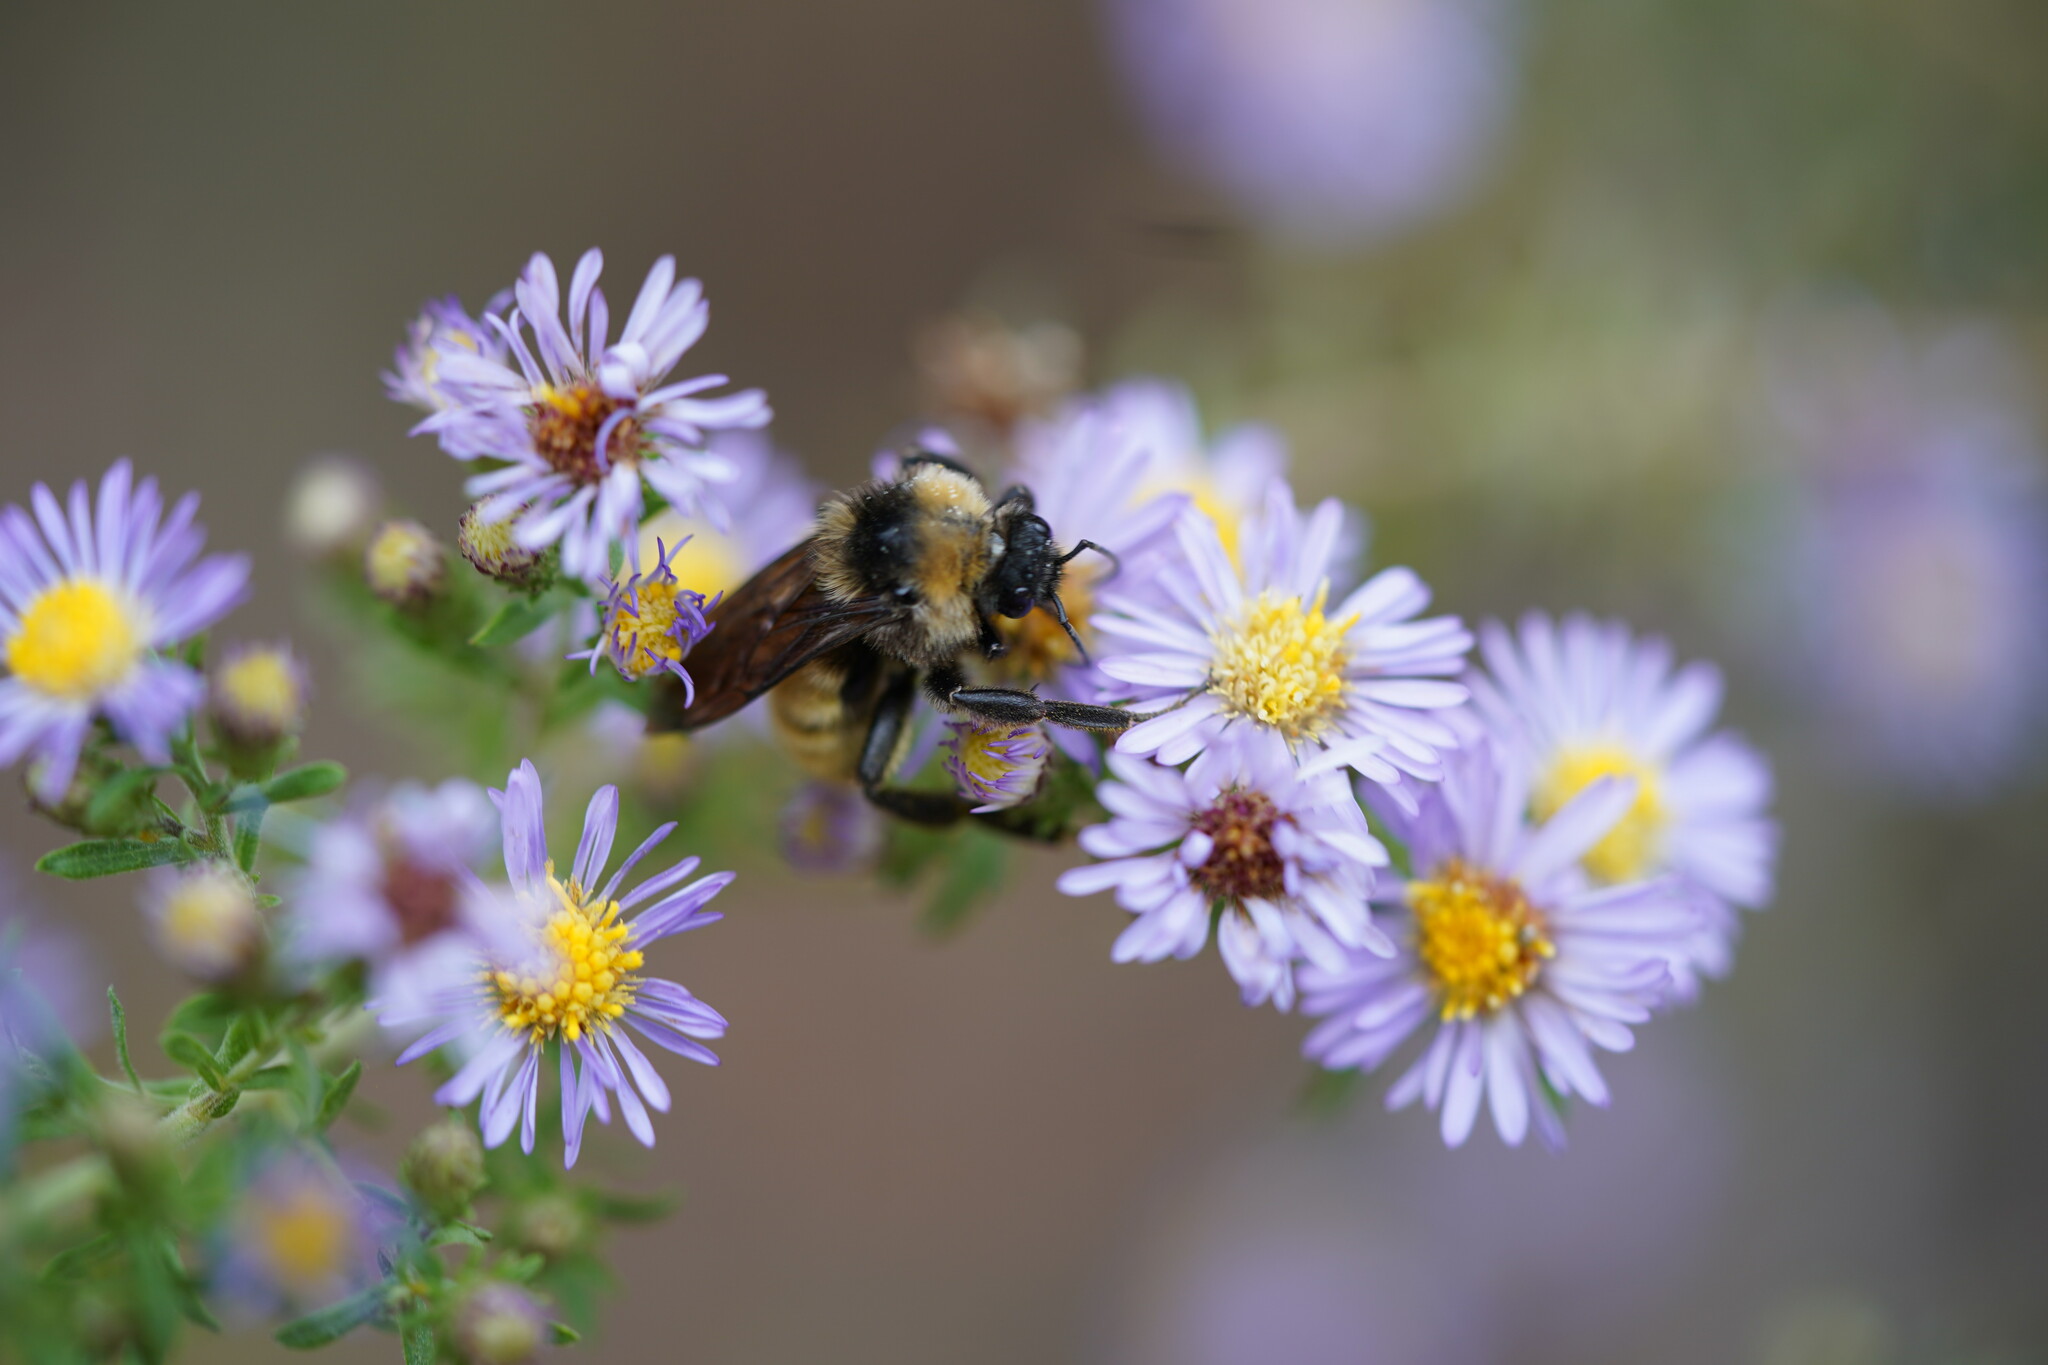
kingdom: Animalia
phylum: Arthropoda
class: Insecta
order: Hymenoptera
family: Apidae
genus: Bombus
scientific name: Bombus pensylvanicus
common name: Bumble bee
